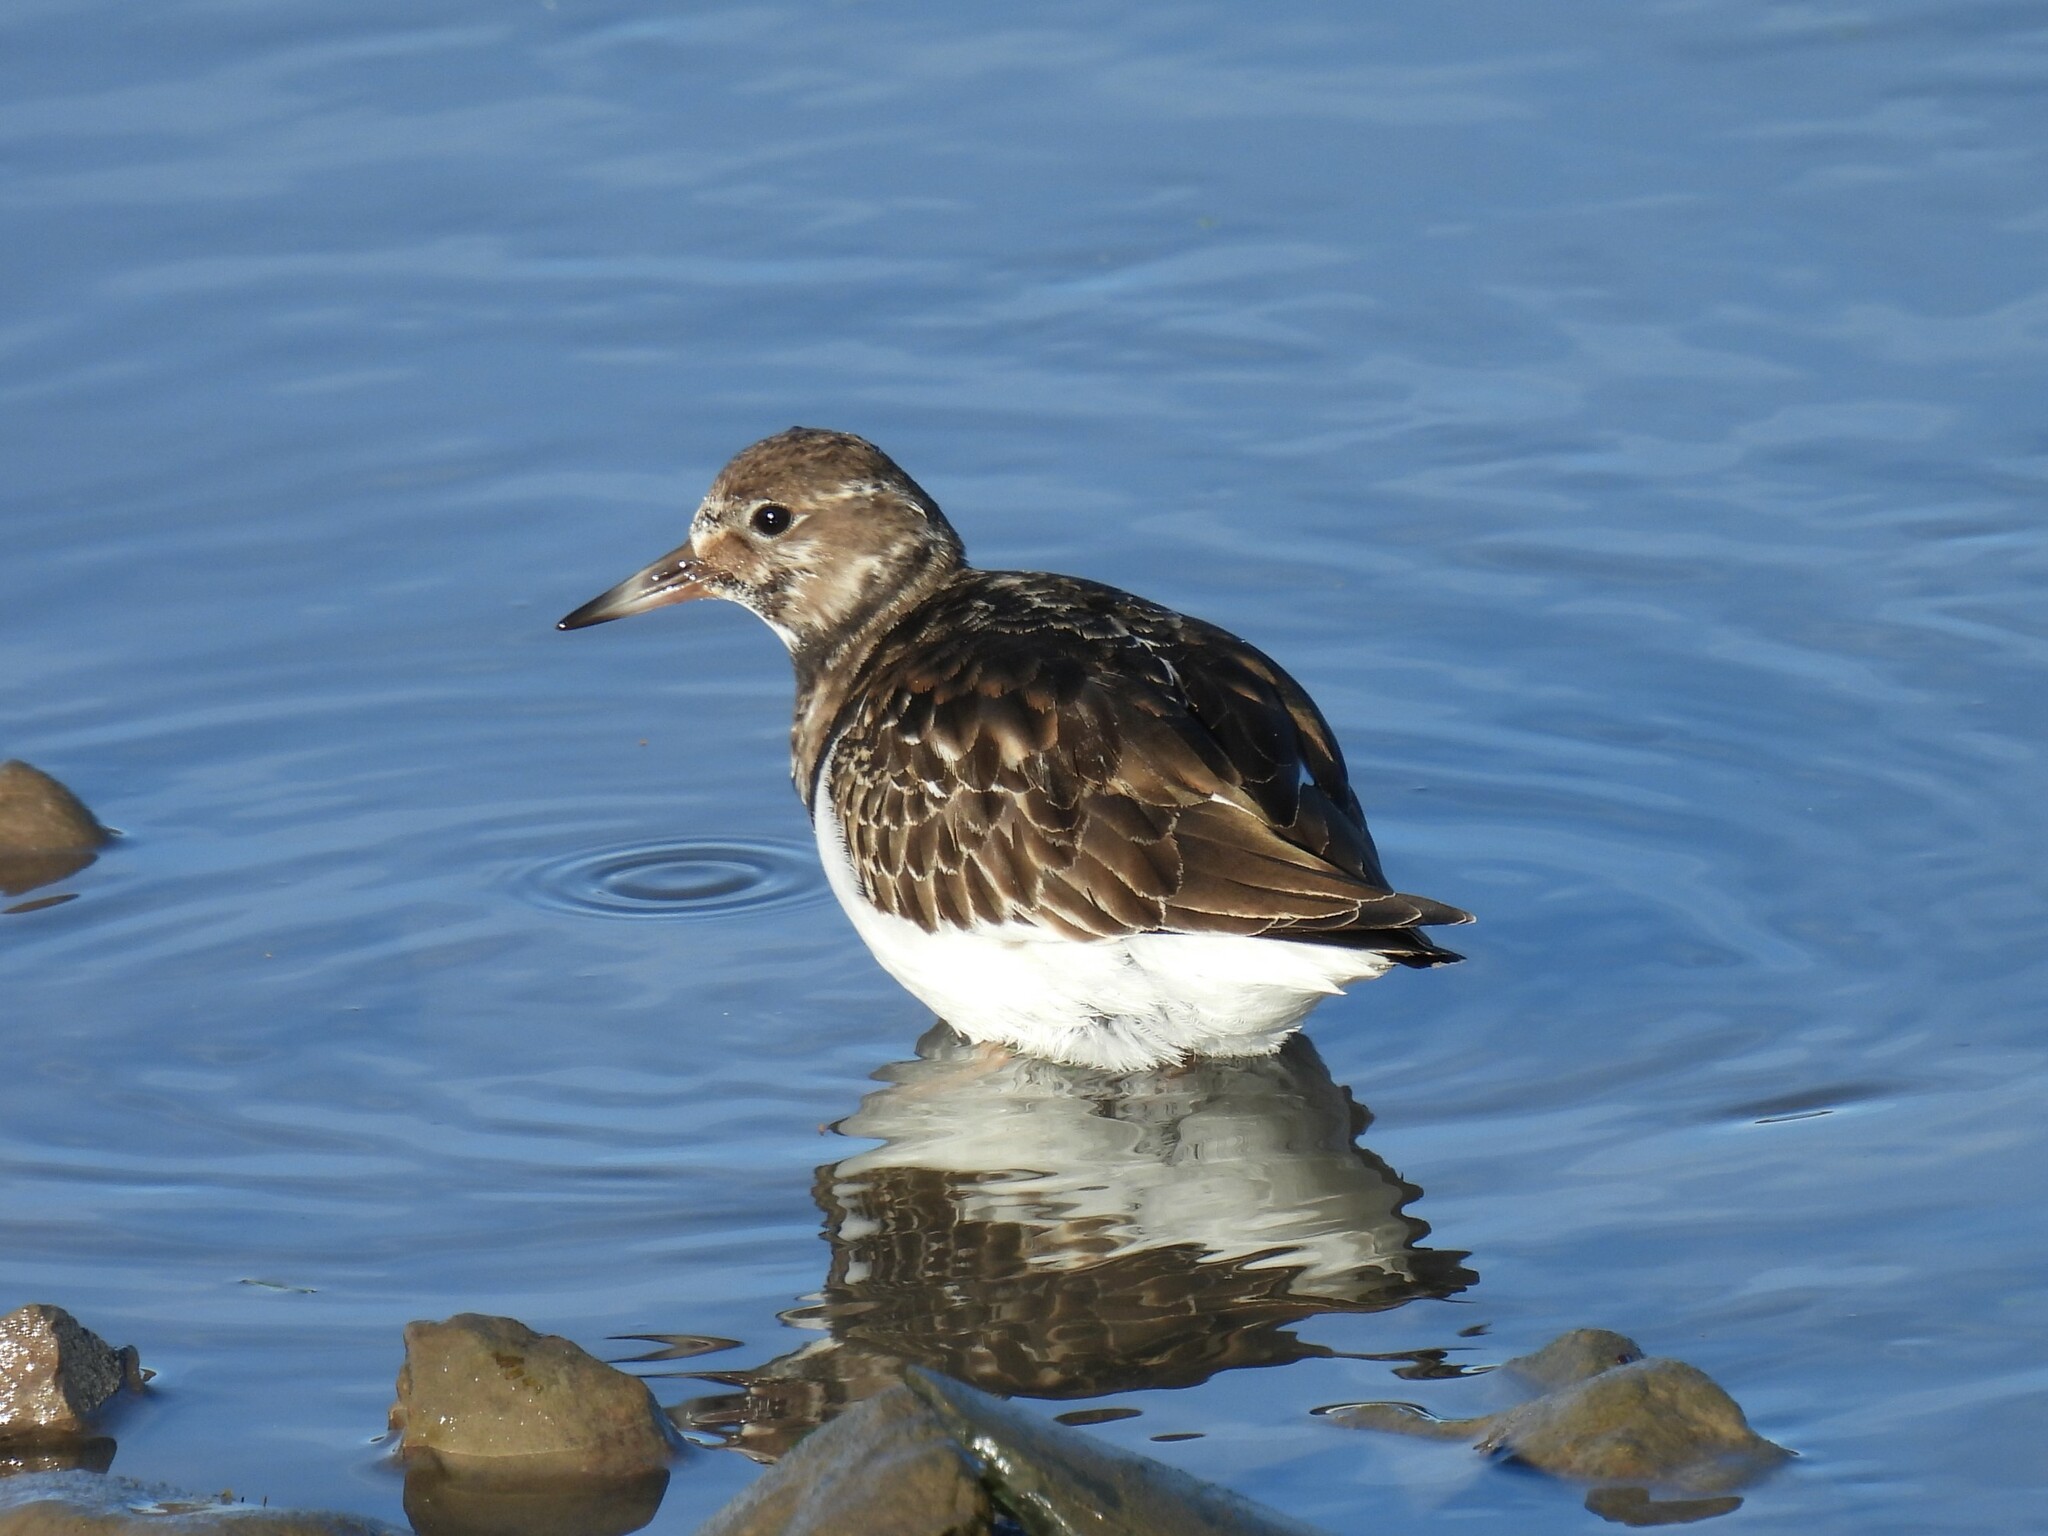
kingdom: Animalia
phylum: Chordata
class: Aves
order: Charadriiformes
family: Scolopacidae
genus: Arenaria
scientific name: Arenaria interpres
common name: Ruddy turnstone
